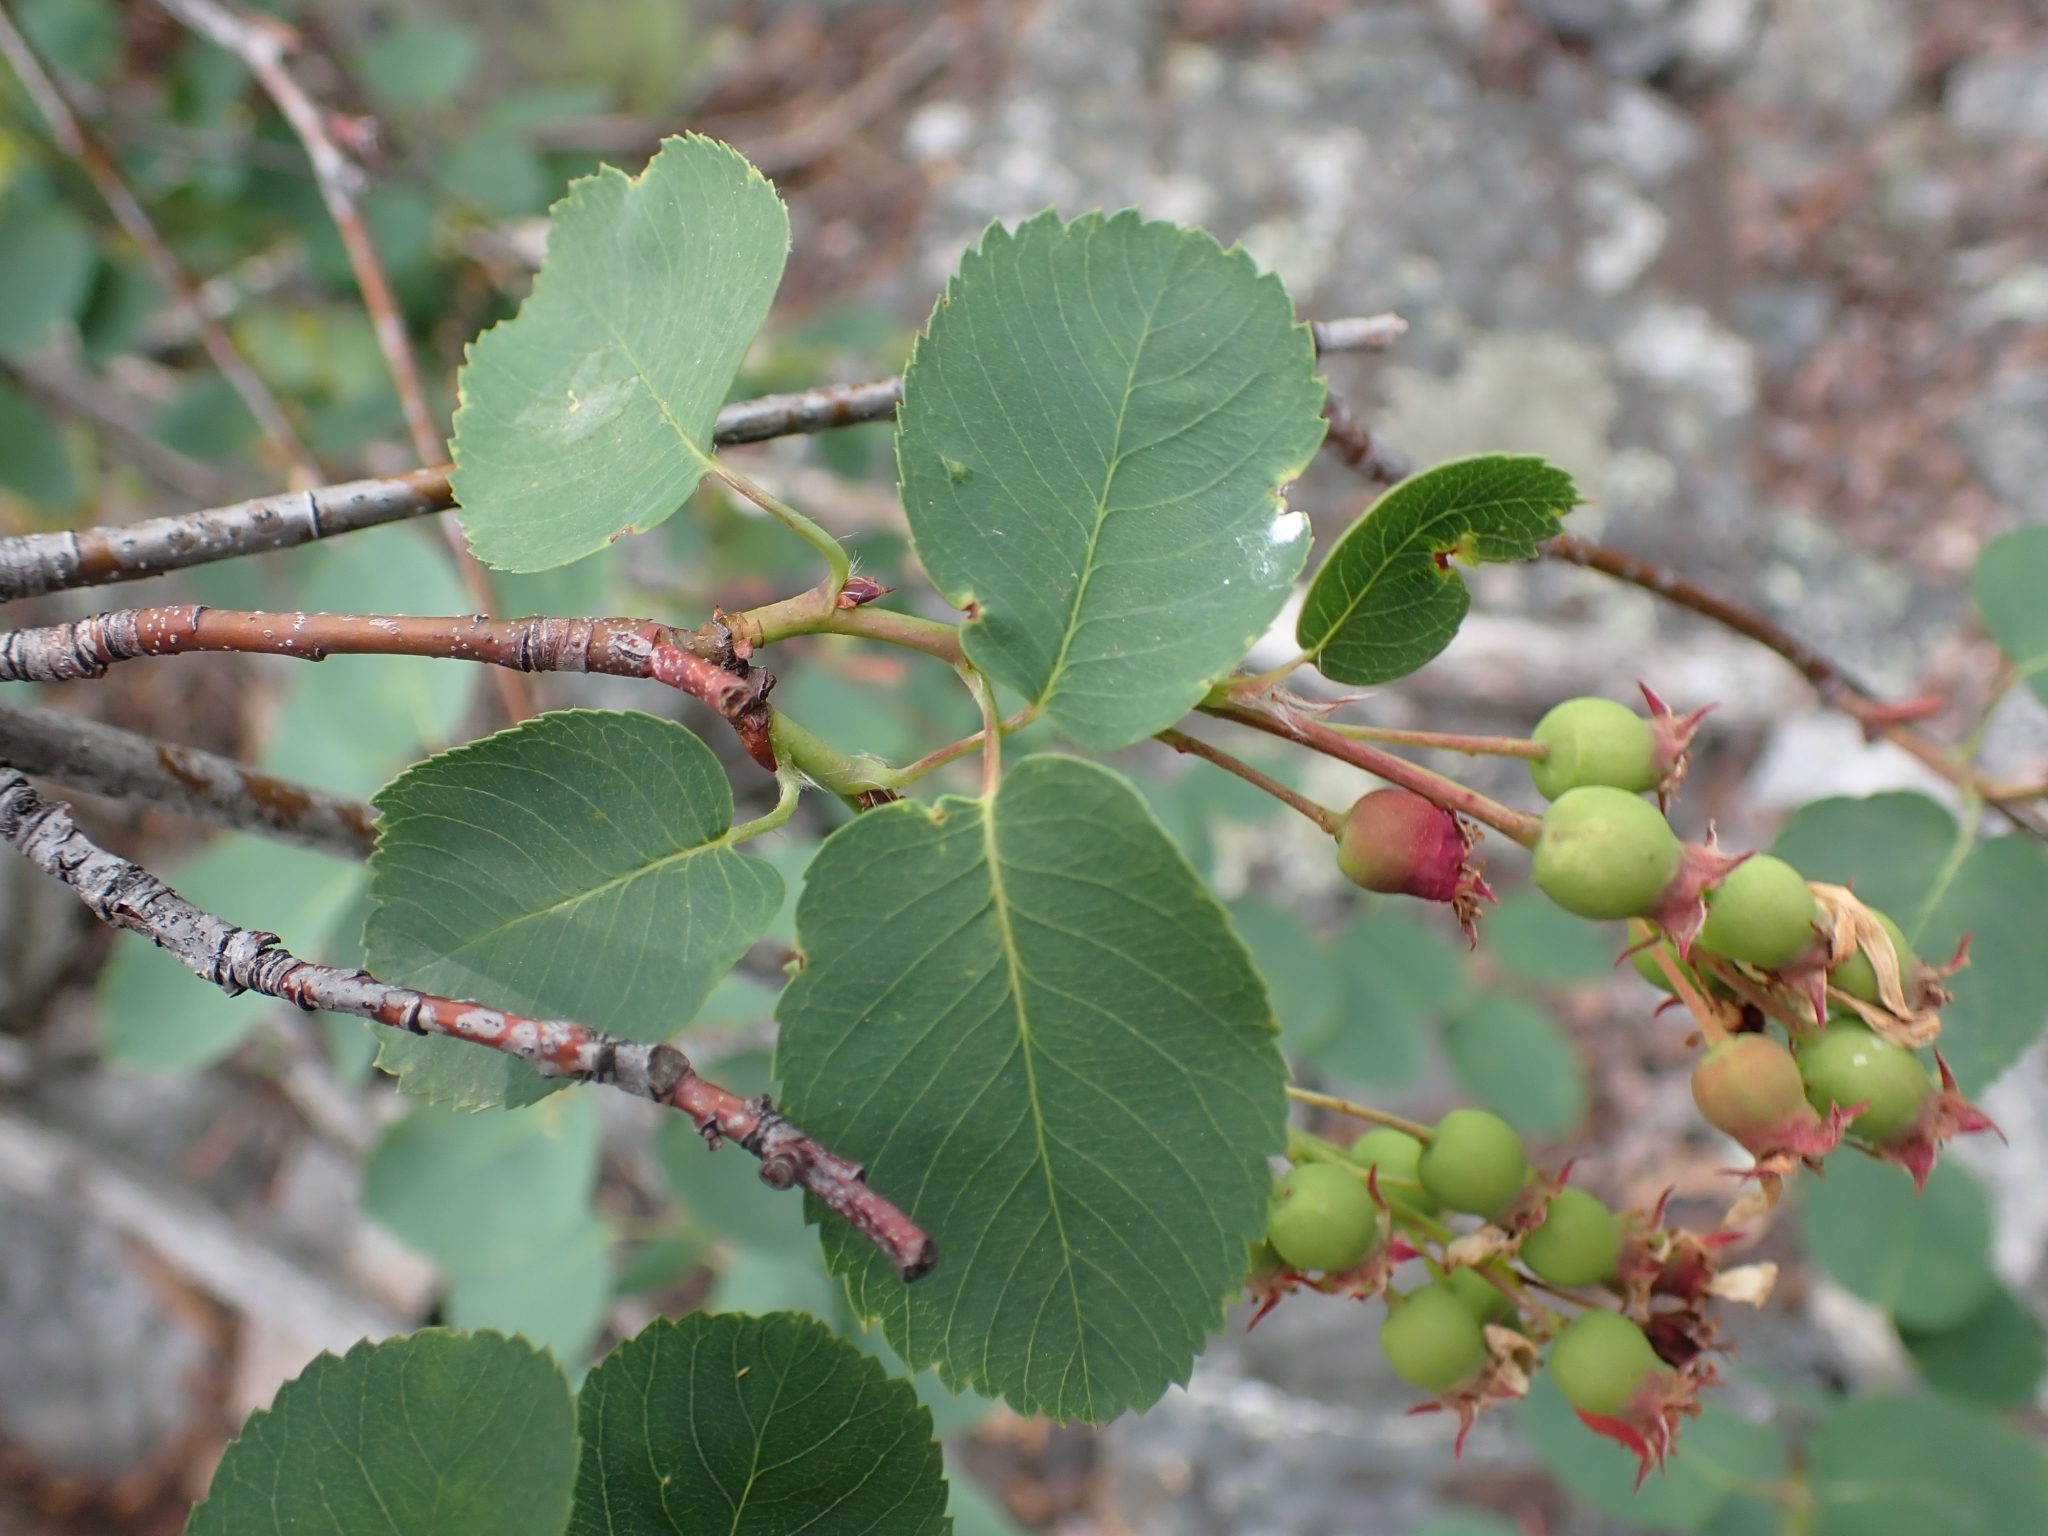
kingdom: Plantae
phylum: Tracheophyta
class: Magnoliopsida
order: Rosales
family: Rosaceae
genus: Amelanchier
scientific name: Amelanchier alnifolia
